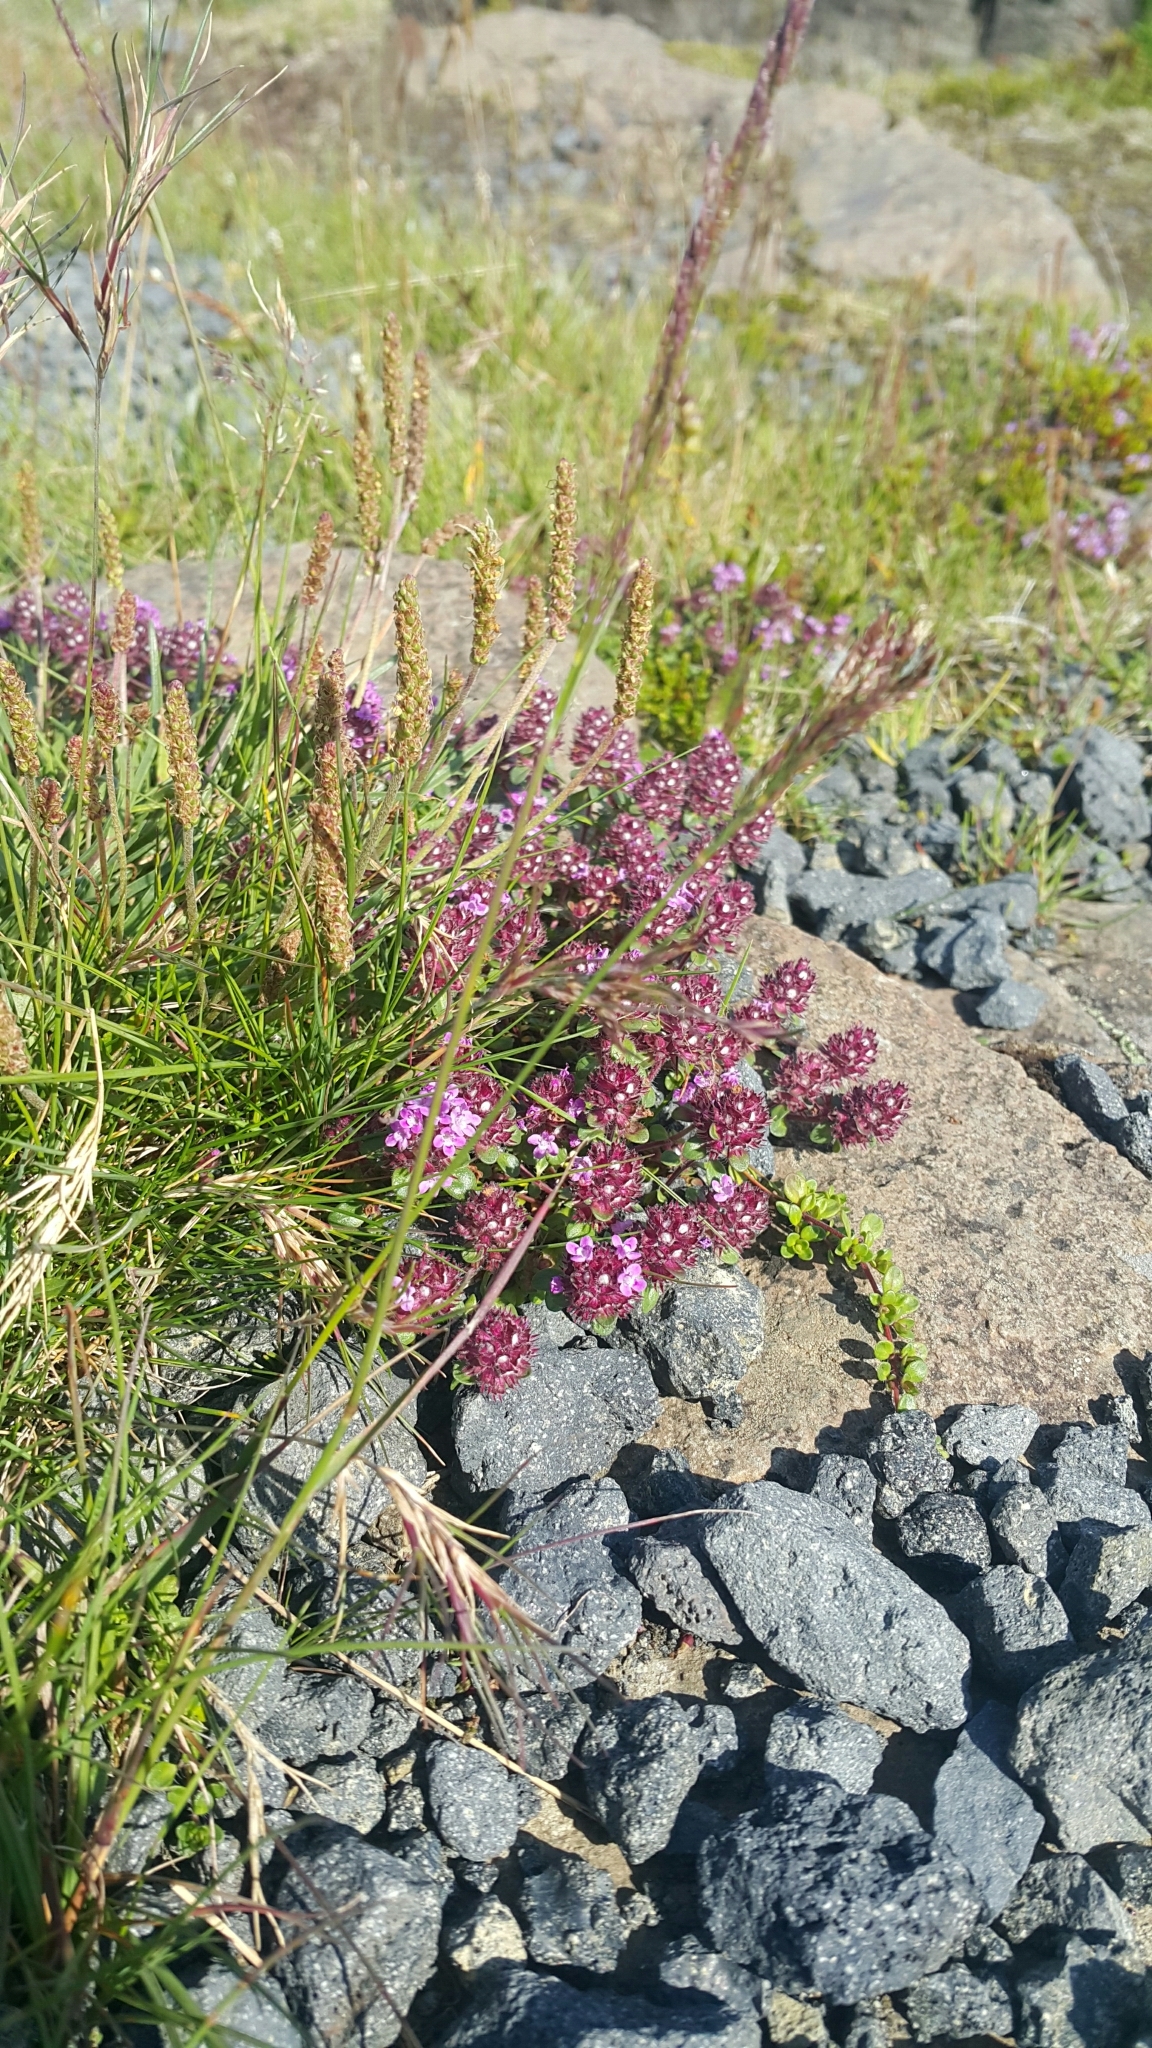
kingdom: Plantae
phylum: Tracheophyta
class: Magnoliopsida
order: Lamiales
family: Lamiaceae
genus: Thymus
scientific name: Thymus praecox
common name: Wild thyme
